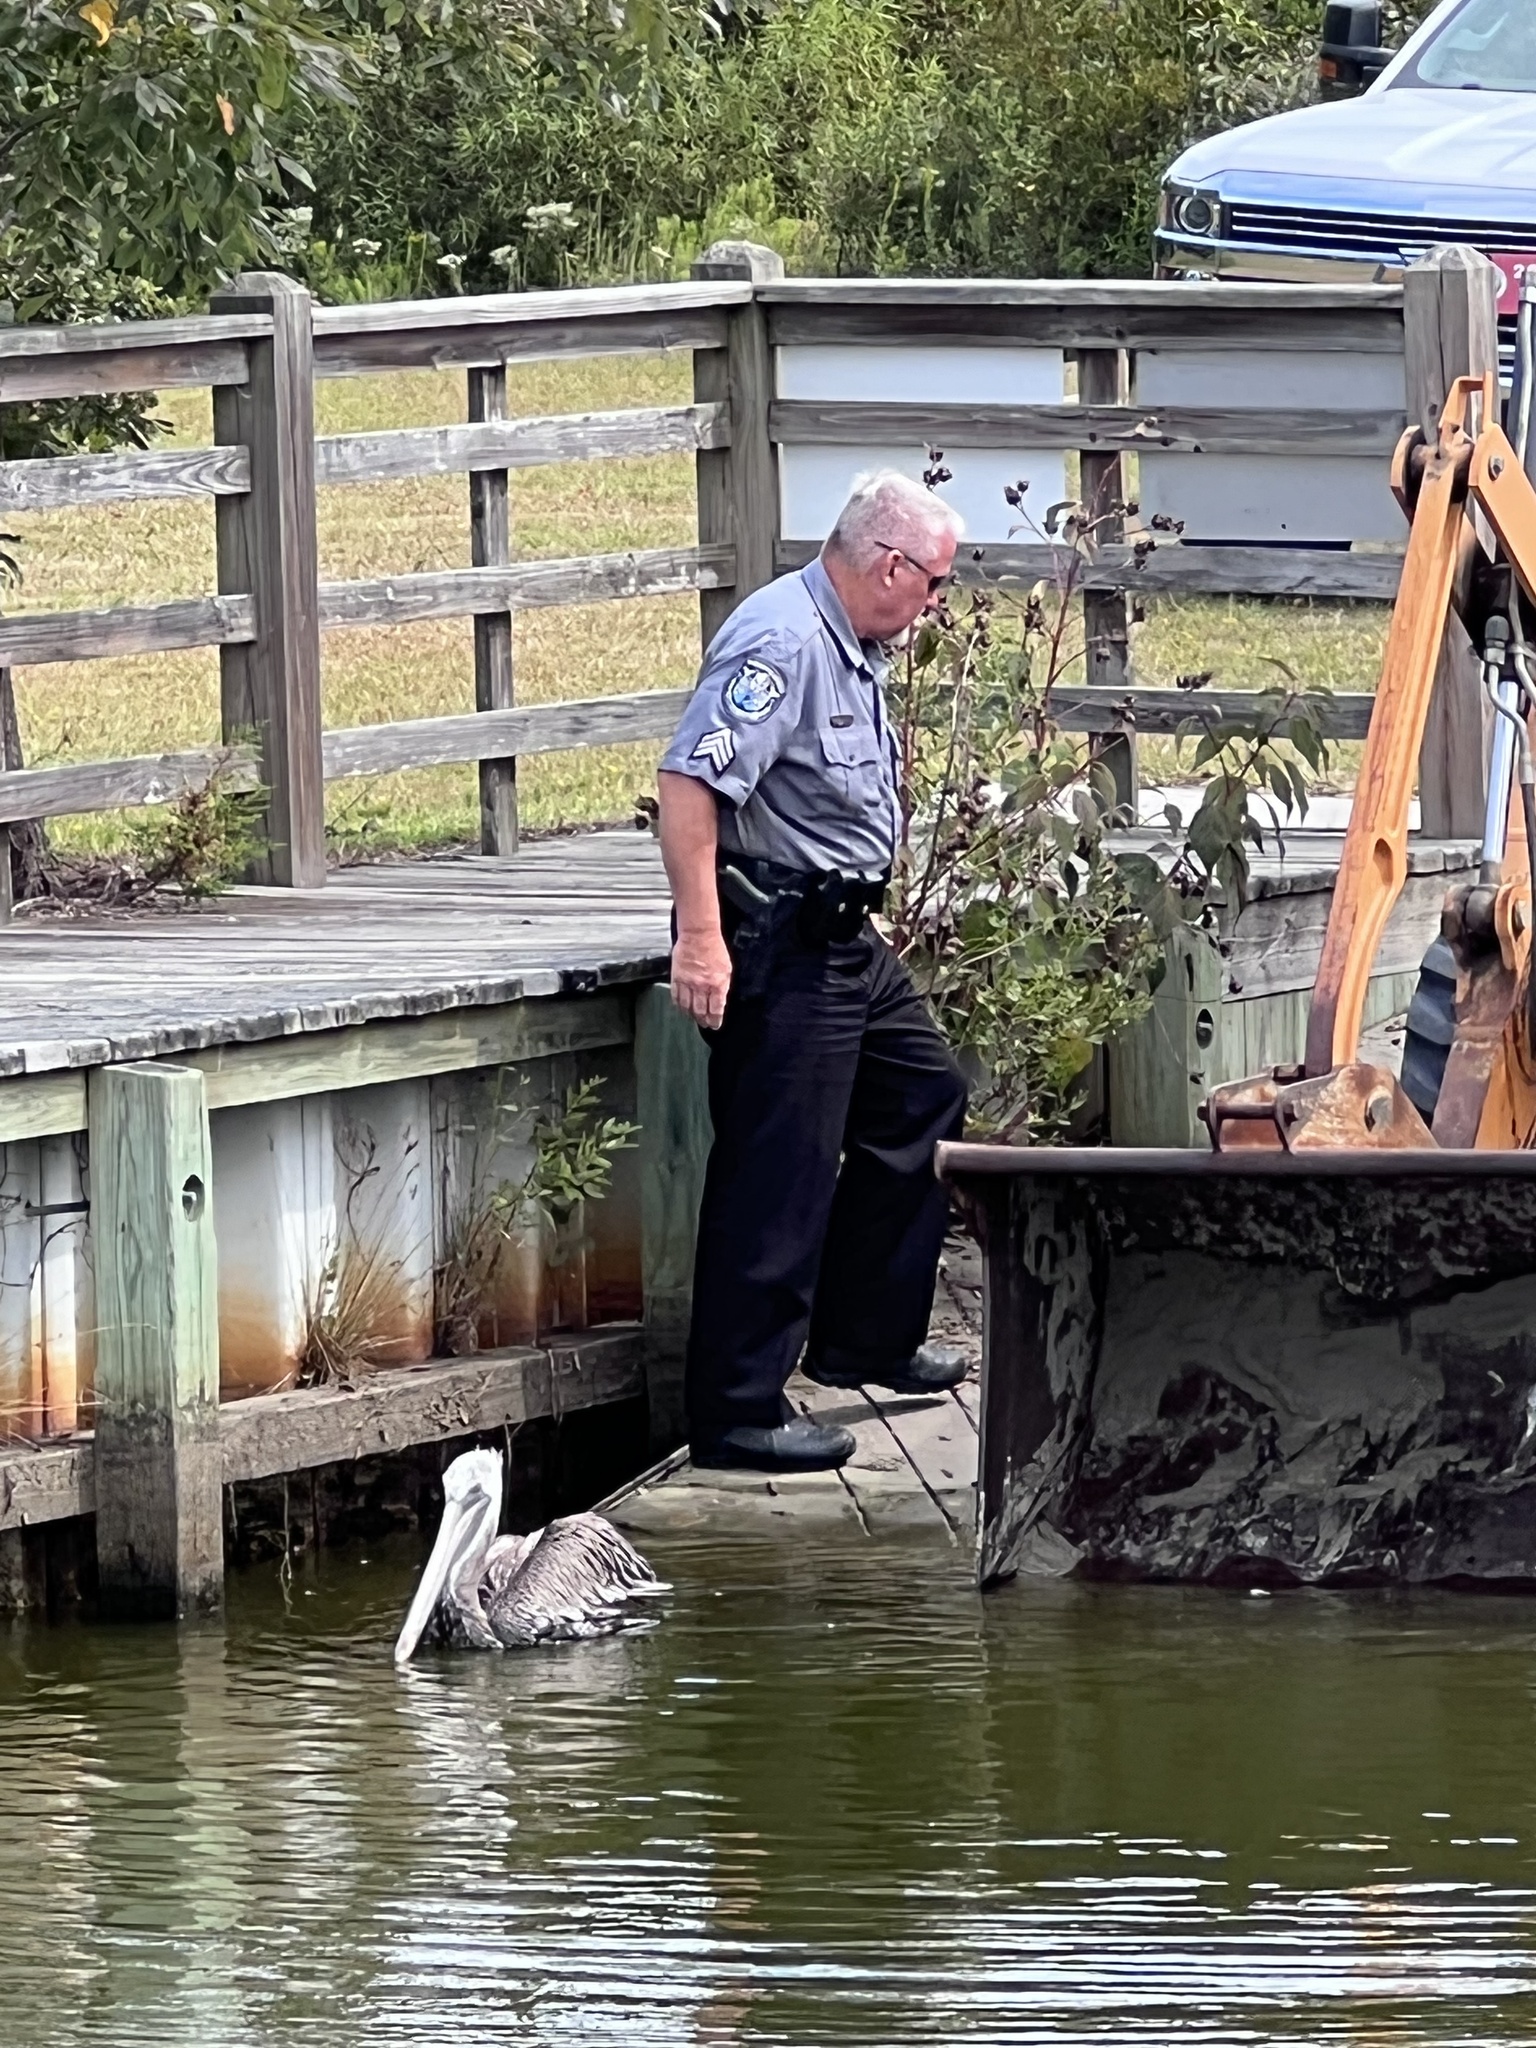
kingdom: Animalia
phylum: Chordata
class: Aves
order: Pelecaniformes
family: Pelecanidae
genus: Pelecanus
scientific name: Pelecanus occidentalis
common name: Brown pelican
